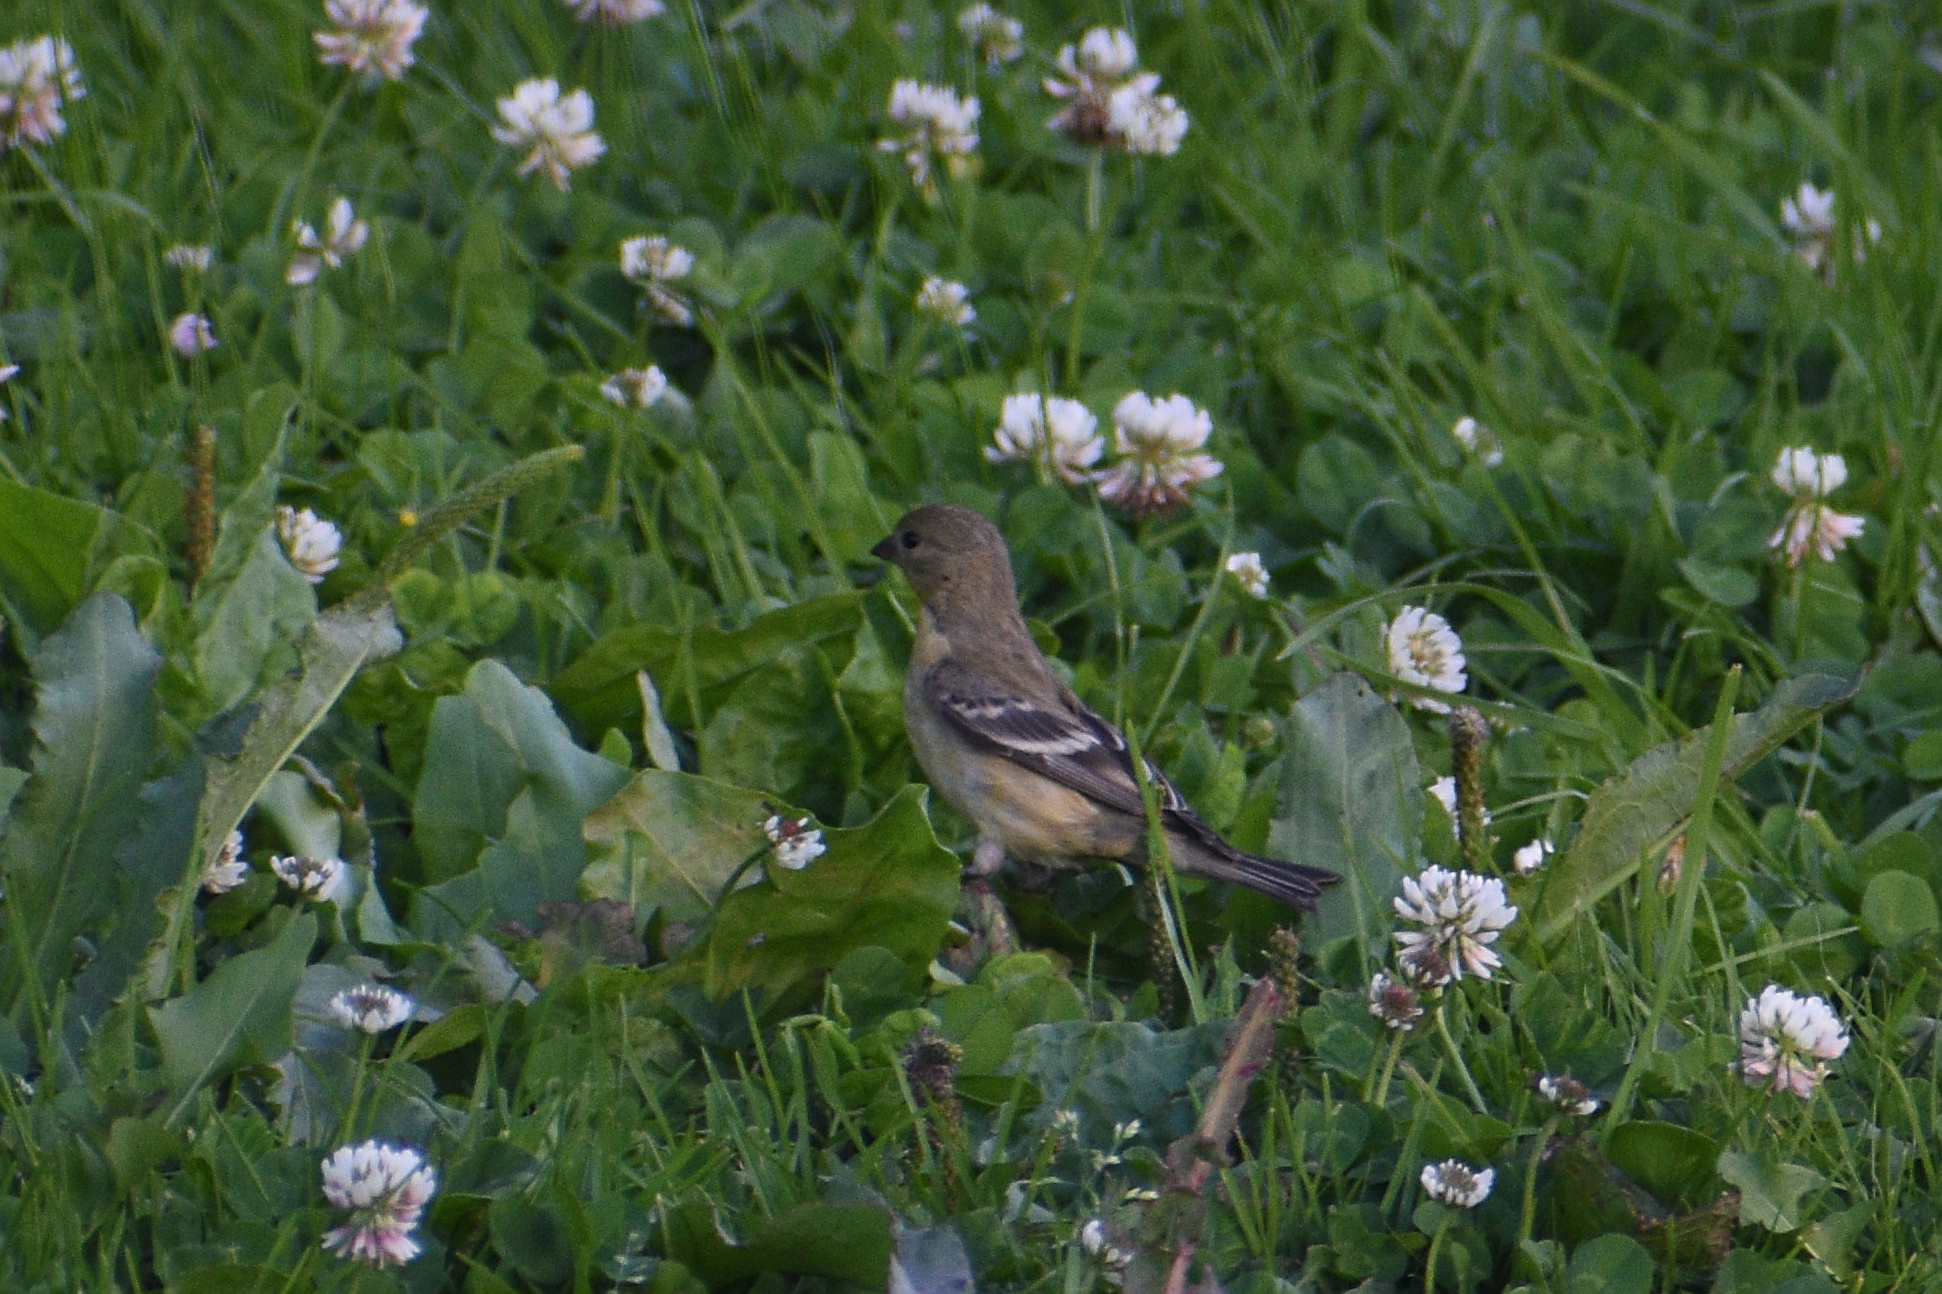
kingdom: Animalia
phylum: Chordata
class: Aves
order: Passeriformes
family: Fringillidae
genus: Spinus
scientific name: Spinus psaltria
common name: Lesser goldfinch
